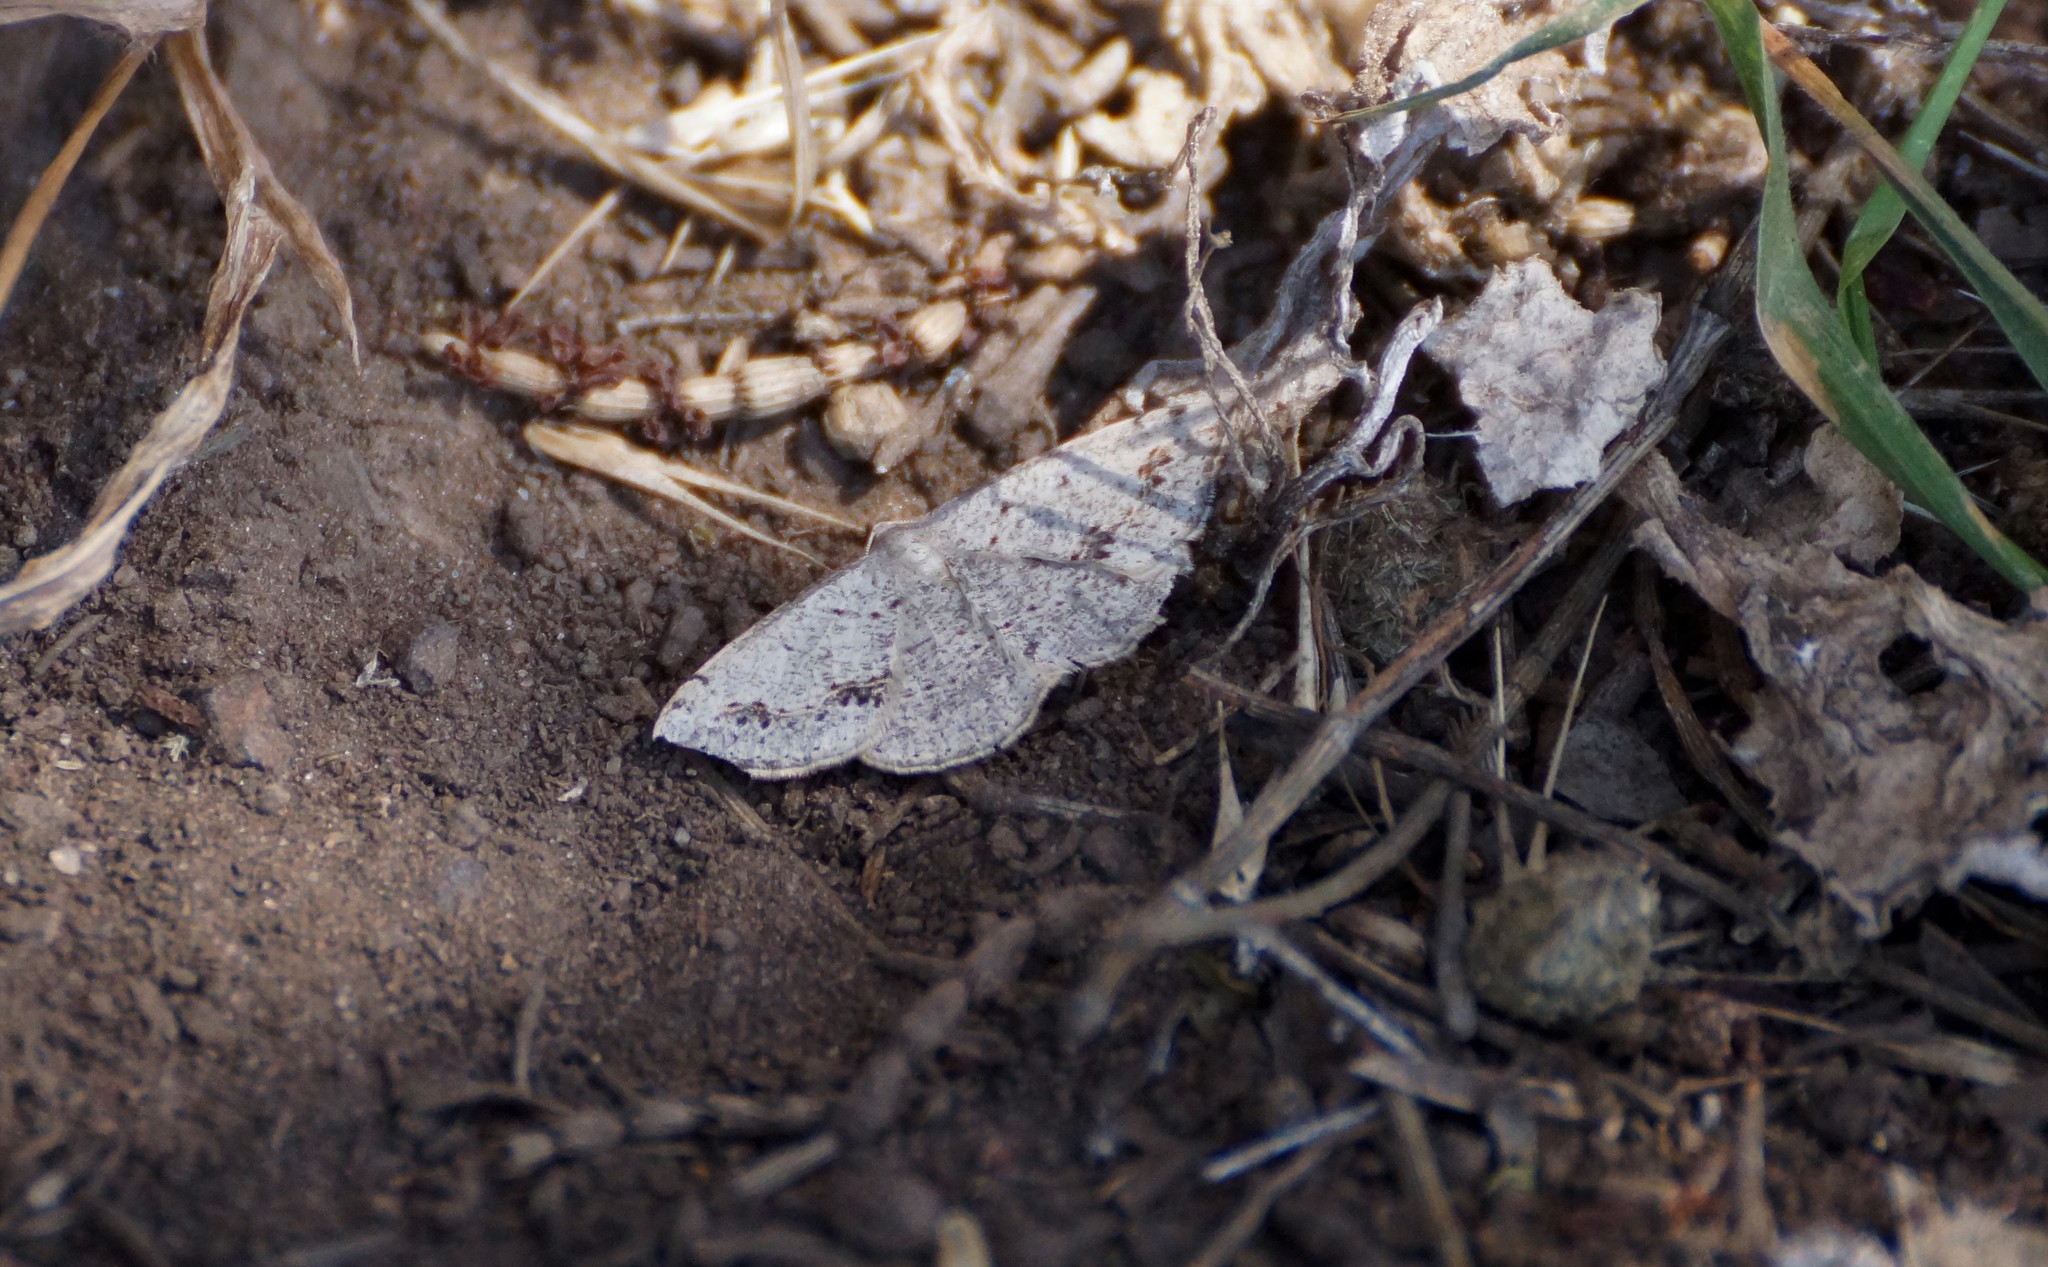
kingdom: Animalia
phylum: Arthropoda
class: Insecta
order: Lepidoptera
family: Geometridae
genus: Taxeotis
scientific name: Taxeotis intextata
